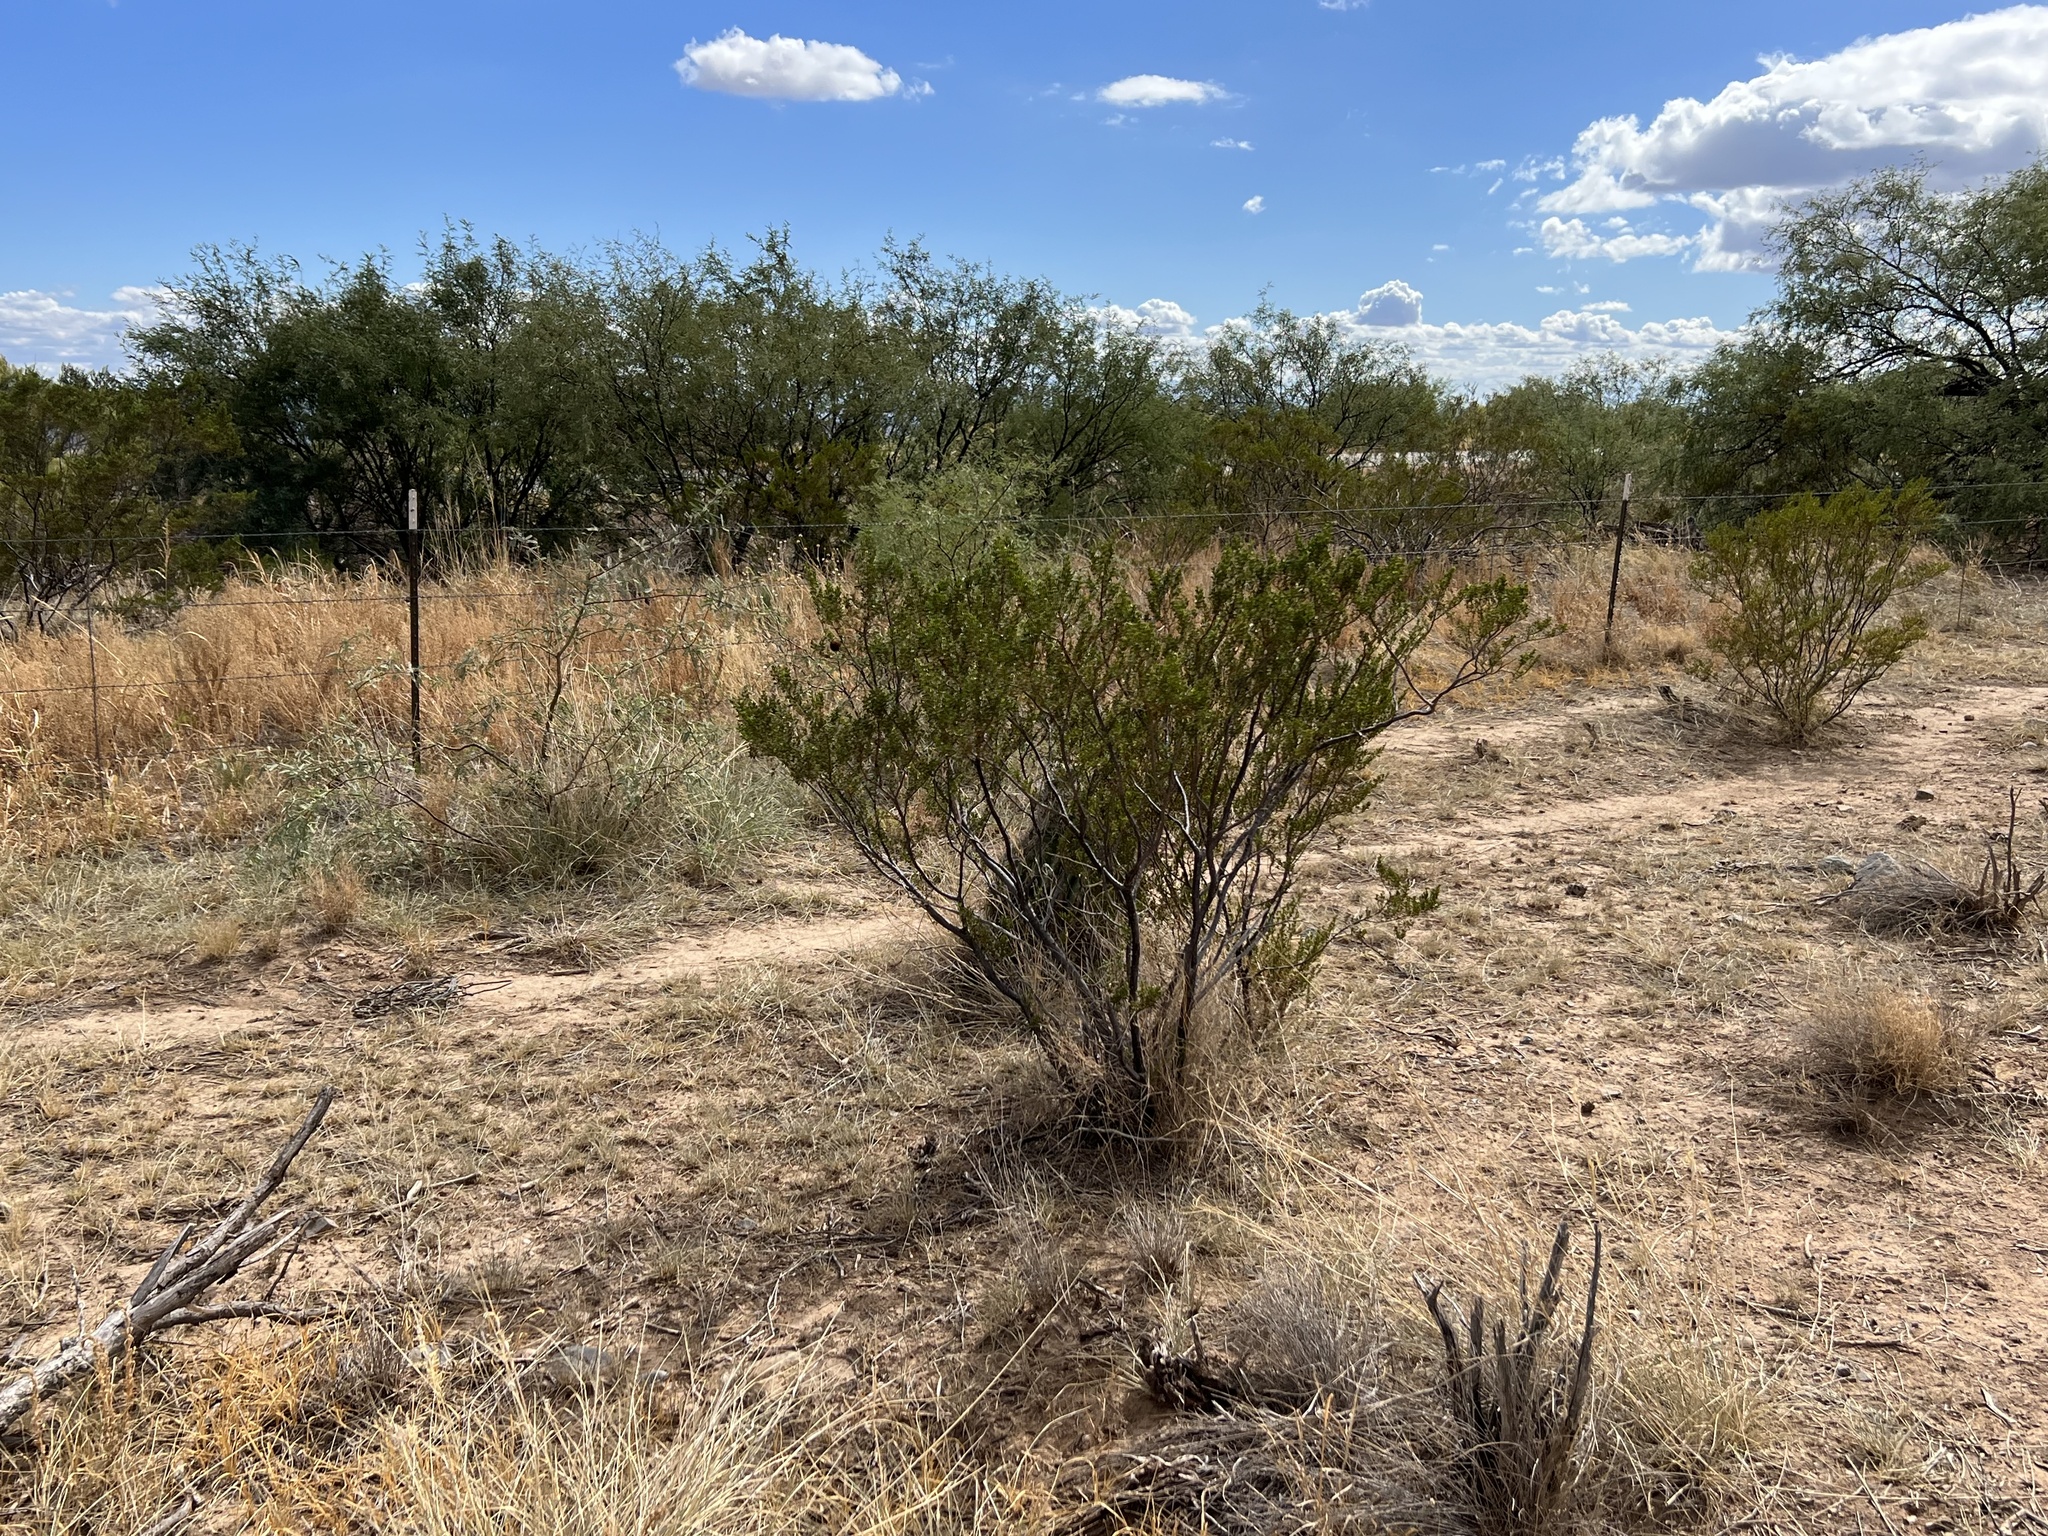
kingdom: Plantae
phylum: Tracheophyta
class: Magnoliopsida
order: Zygophyllales
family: Zygophyllaceae
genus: Larrea
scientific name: Larrea tridentata
